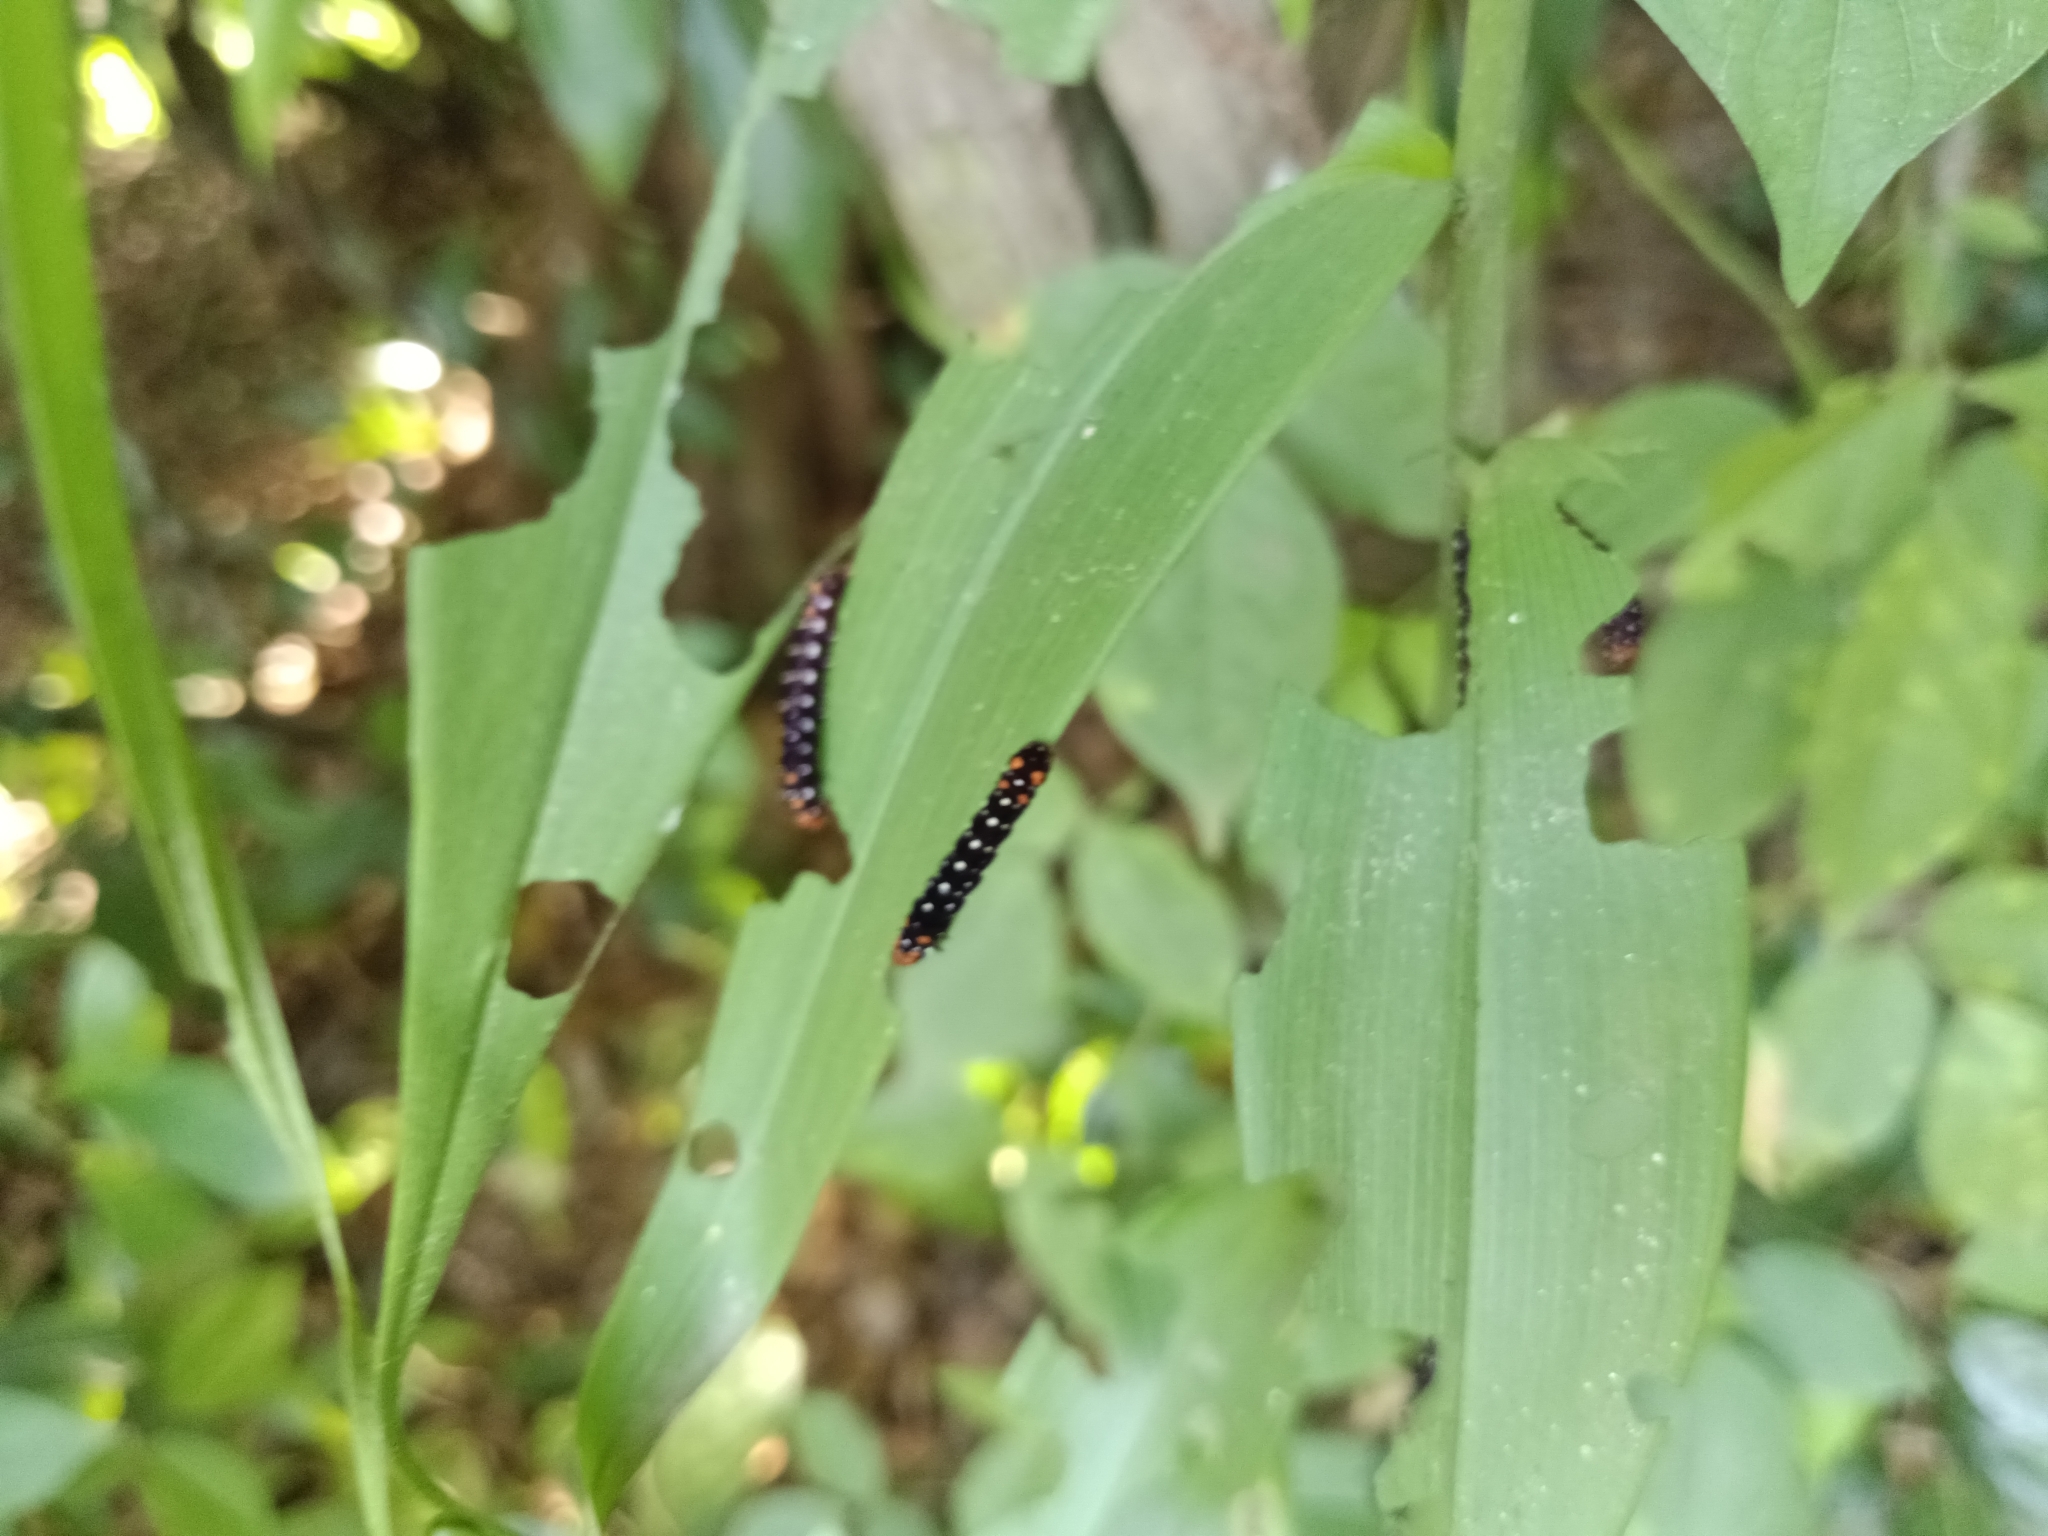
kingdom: Animalia
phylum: Arthropoda
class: Insecta
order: Lepidoptera
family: Noctuidae
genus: Polytela
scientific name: Polytela gloriosae
